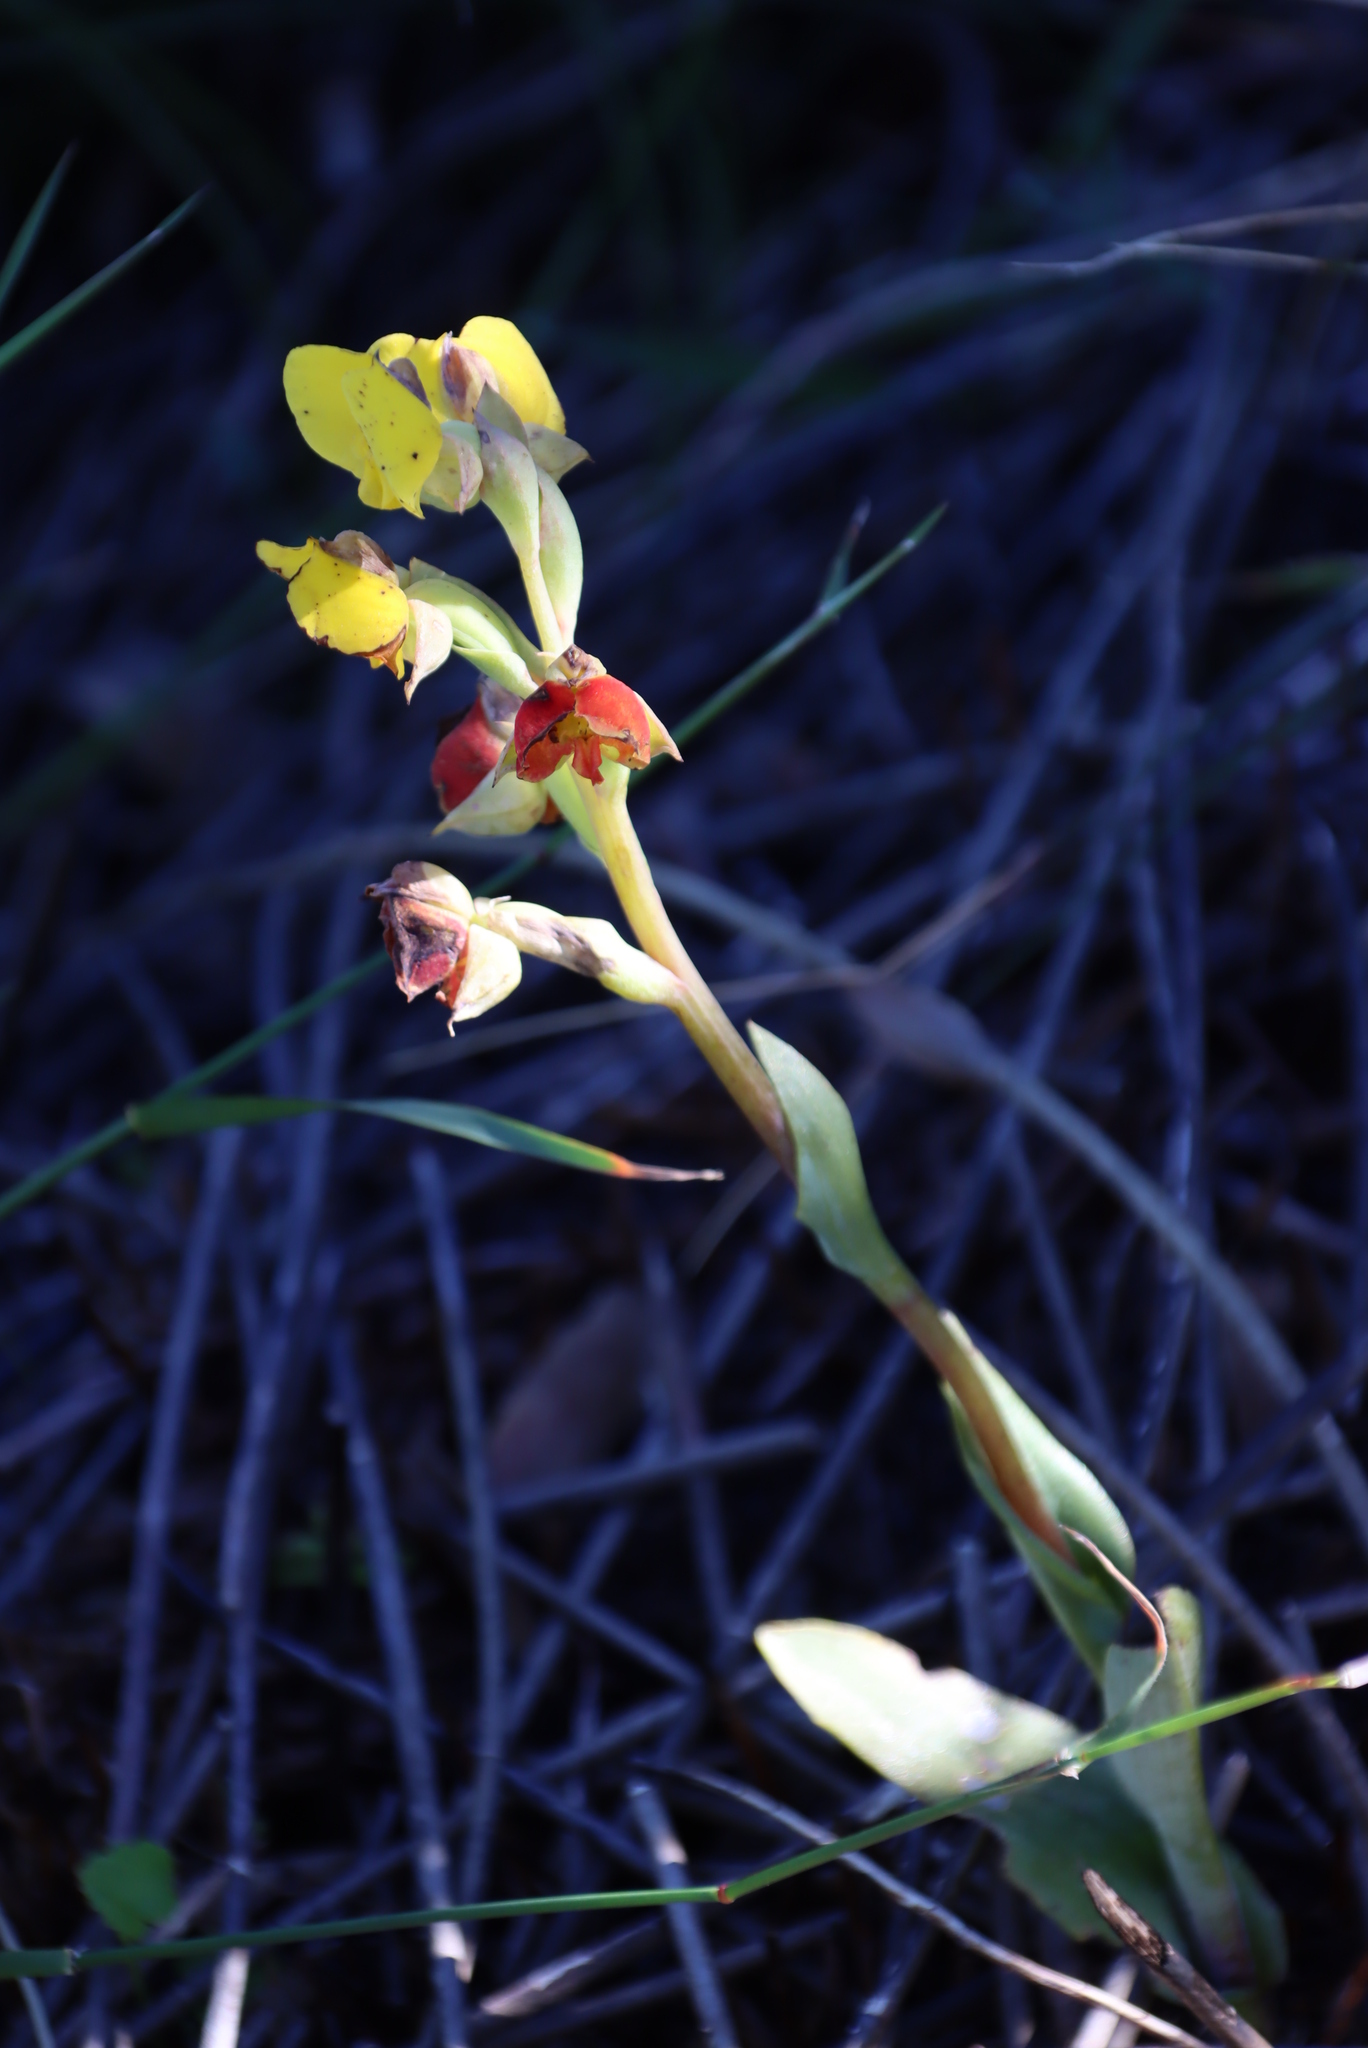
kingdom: Plantae
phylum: Tracheophyta
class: Liliopsida
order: Asparagales
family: Orchidaceae
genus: Pterygodium
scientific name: Pterygodium acutifolium
